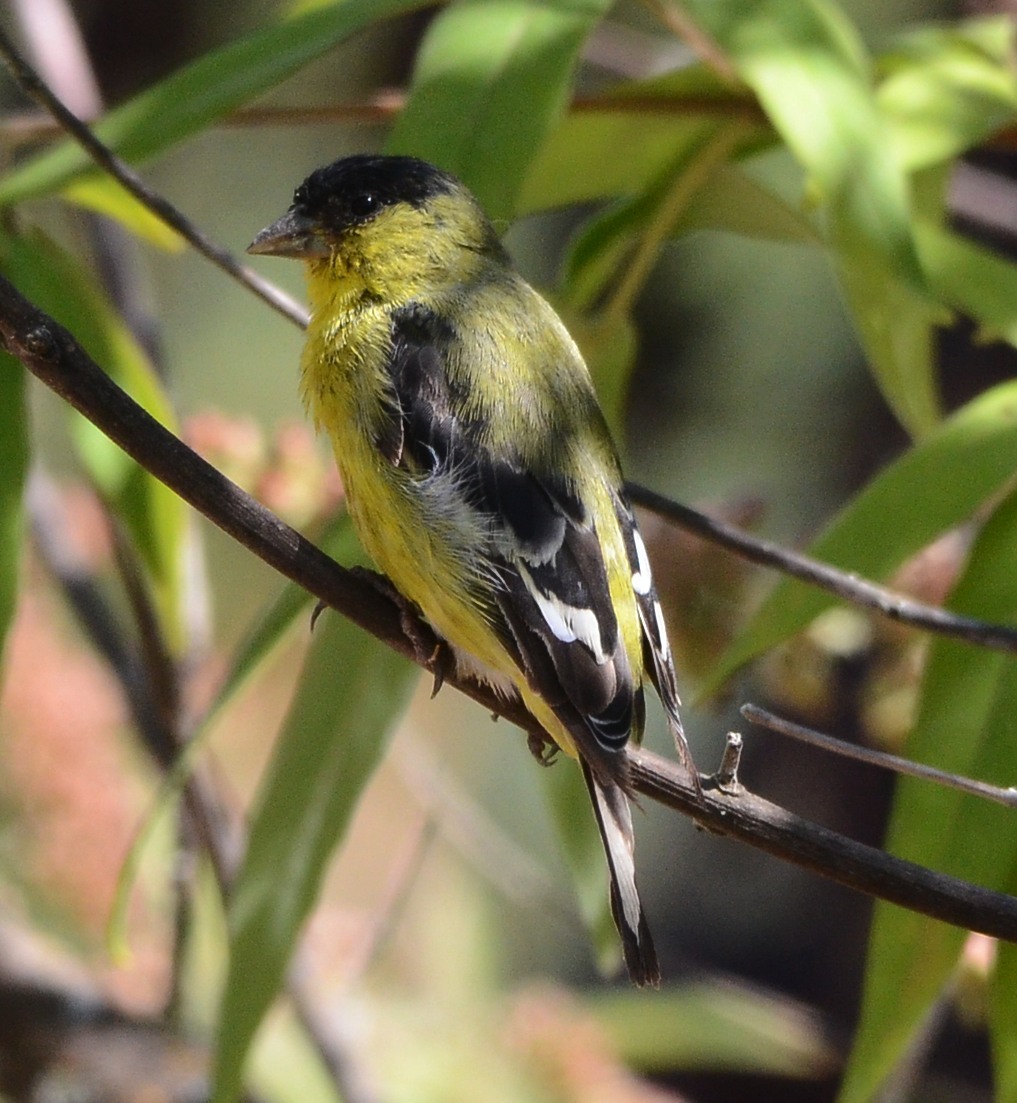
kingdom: Animalia
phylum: Chordata
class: Aves
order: Passeriformes
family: Fringillidae
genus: Spinus
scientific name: Spinus psaltria
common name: Lesser goldfinch
